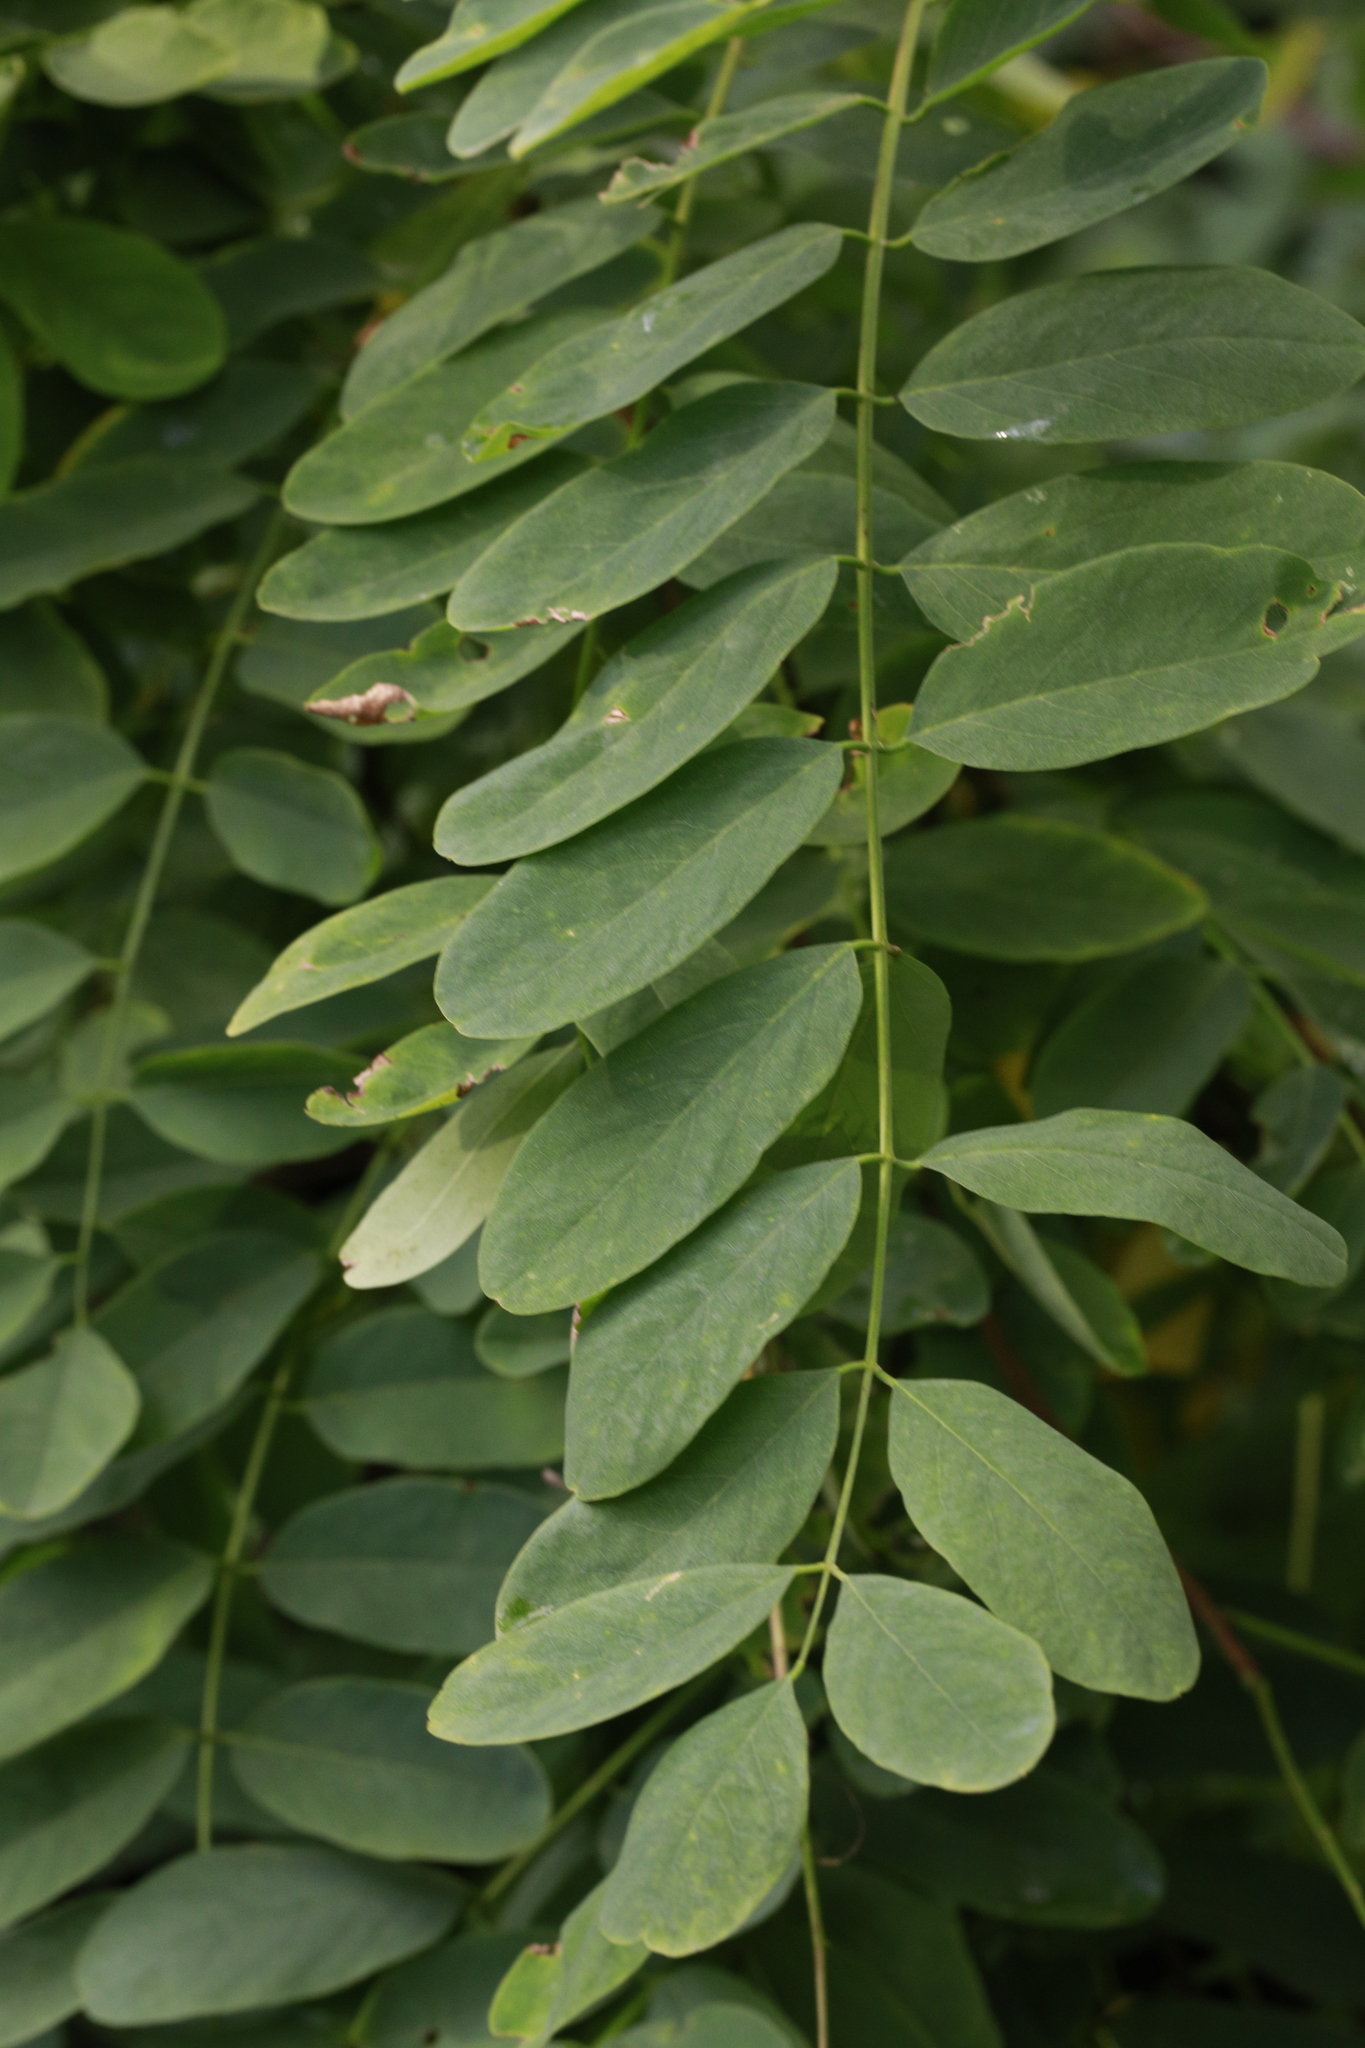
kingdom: Plantae
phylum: Tracheophyta
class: Magnoliopsida
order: Fabales
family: Fabaceae
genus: Robinia
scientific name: Robinia pseudoacacia
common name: Black locust
